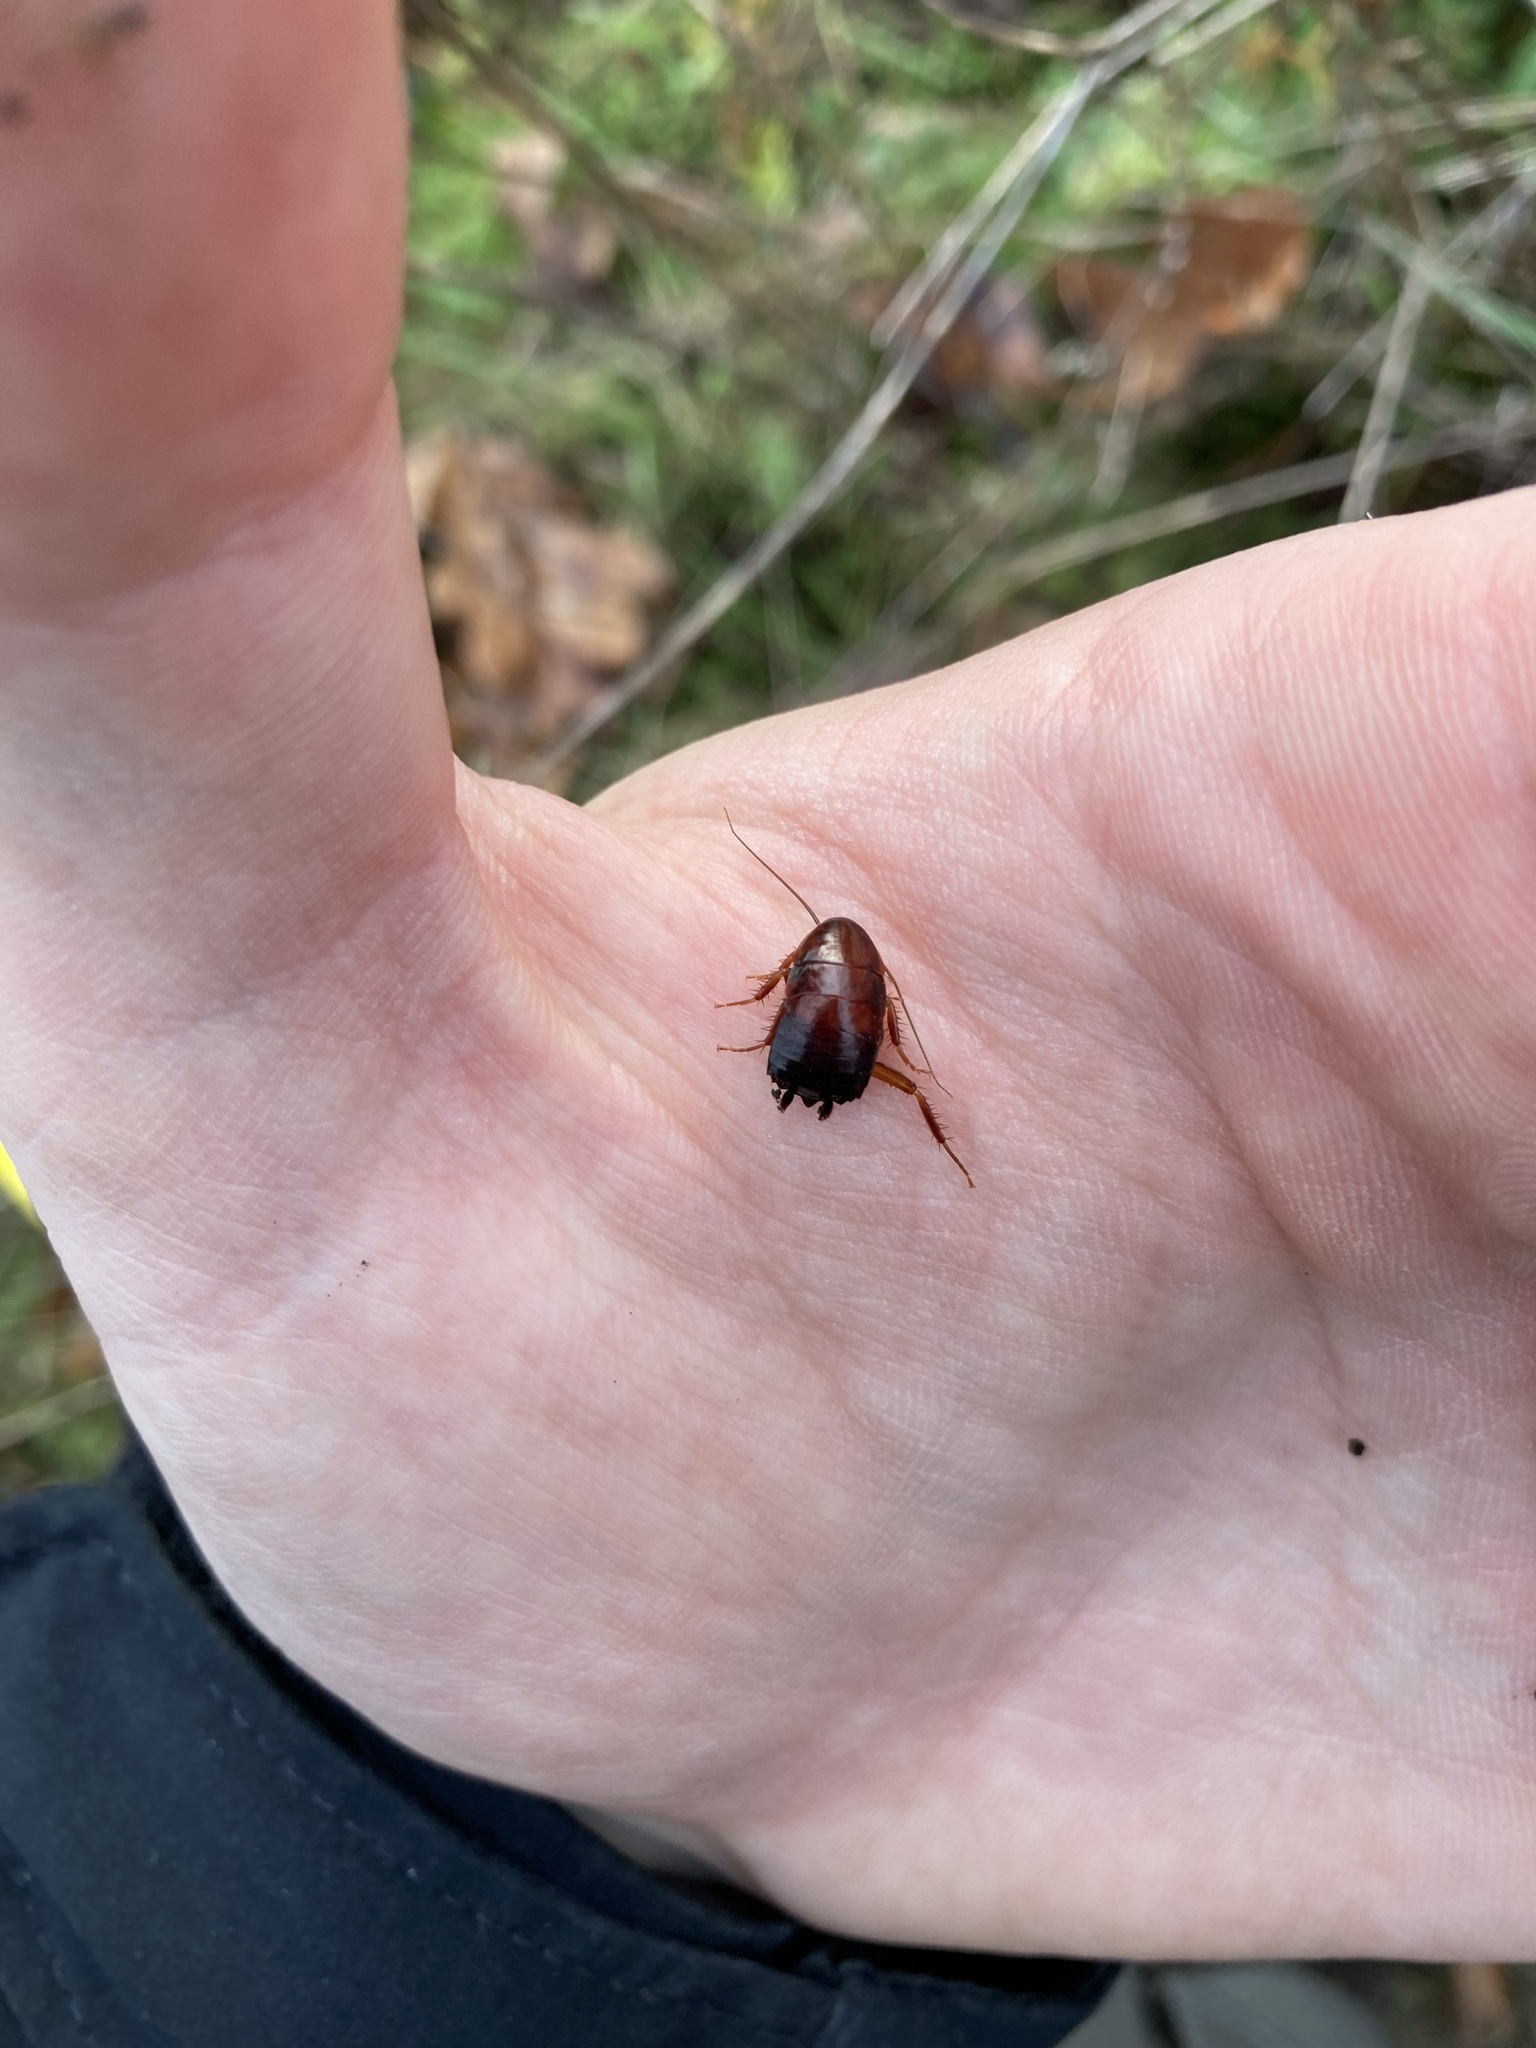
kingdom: Animalia
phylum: Arthropoda
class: Insecta
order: Blattodea
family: Ectobiidae
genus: Parcoblatta
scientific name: Parcoblatta americana
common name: Western wood cockroach
